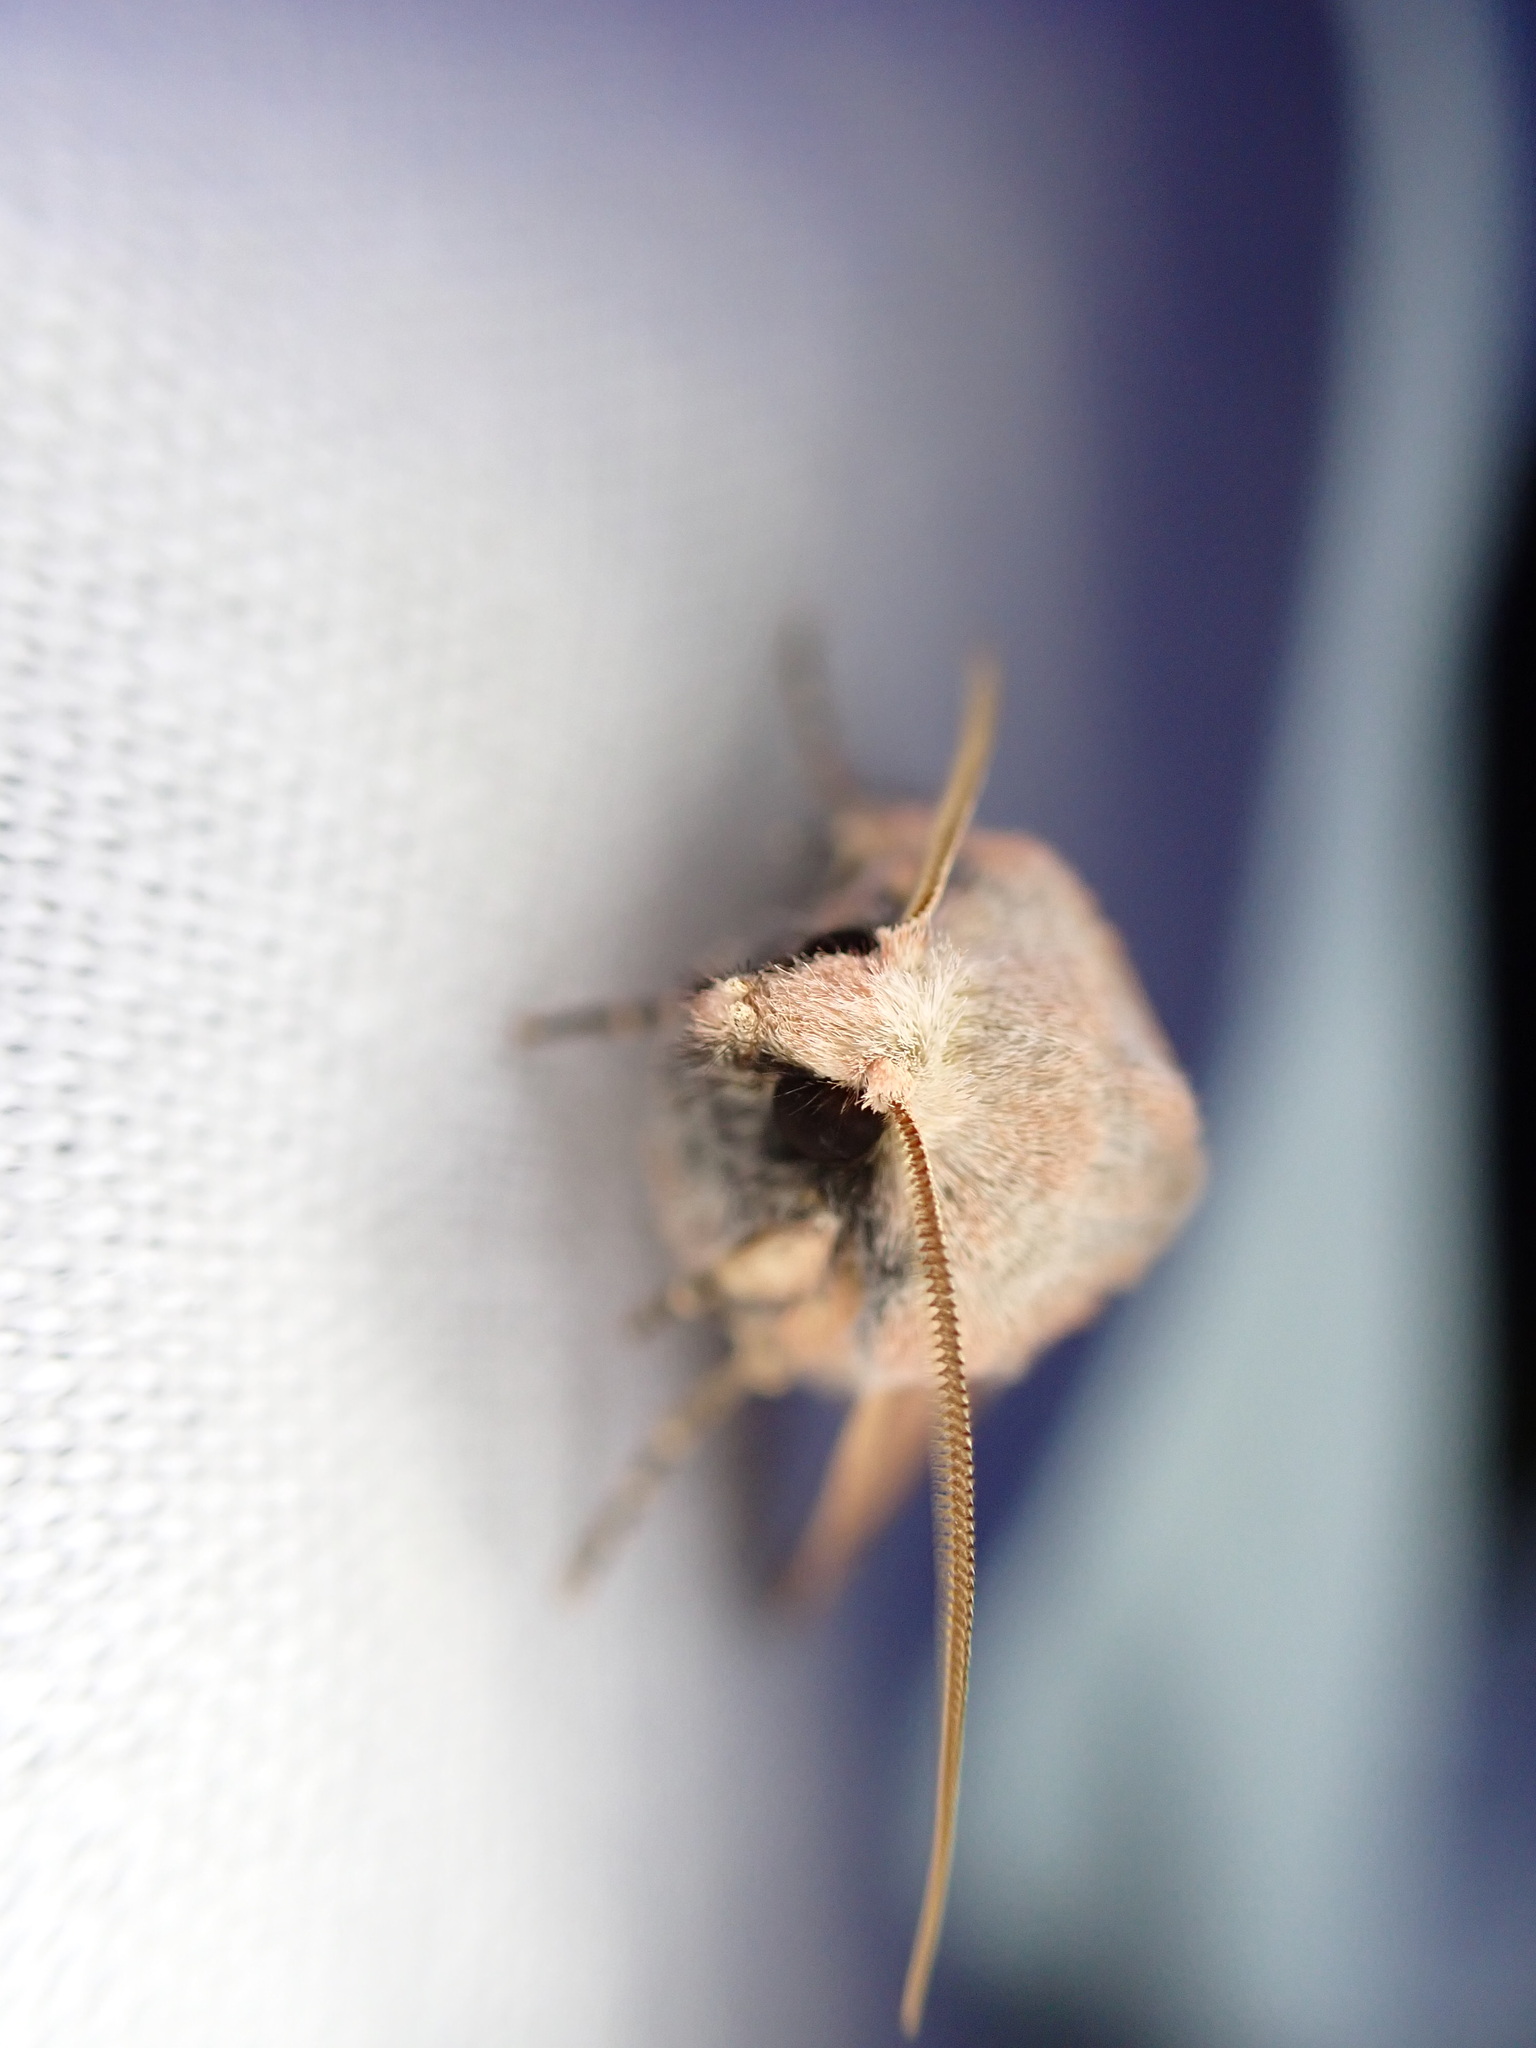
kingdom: Animalia
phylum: Arthropoda
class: Insecta
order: Lepidoptera
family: Noctuidae
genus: Ammopolia
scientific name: Ammopolia witzenmanni
